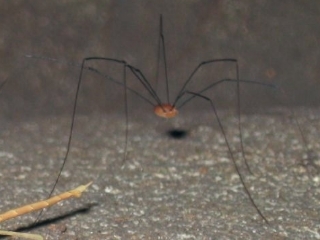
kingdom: Animalia
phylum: Arthropoda
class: Arachnida
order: Opiliones
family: Sclerosomatidae
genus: Leiobunum
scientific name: Leiobunum
